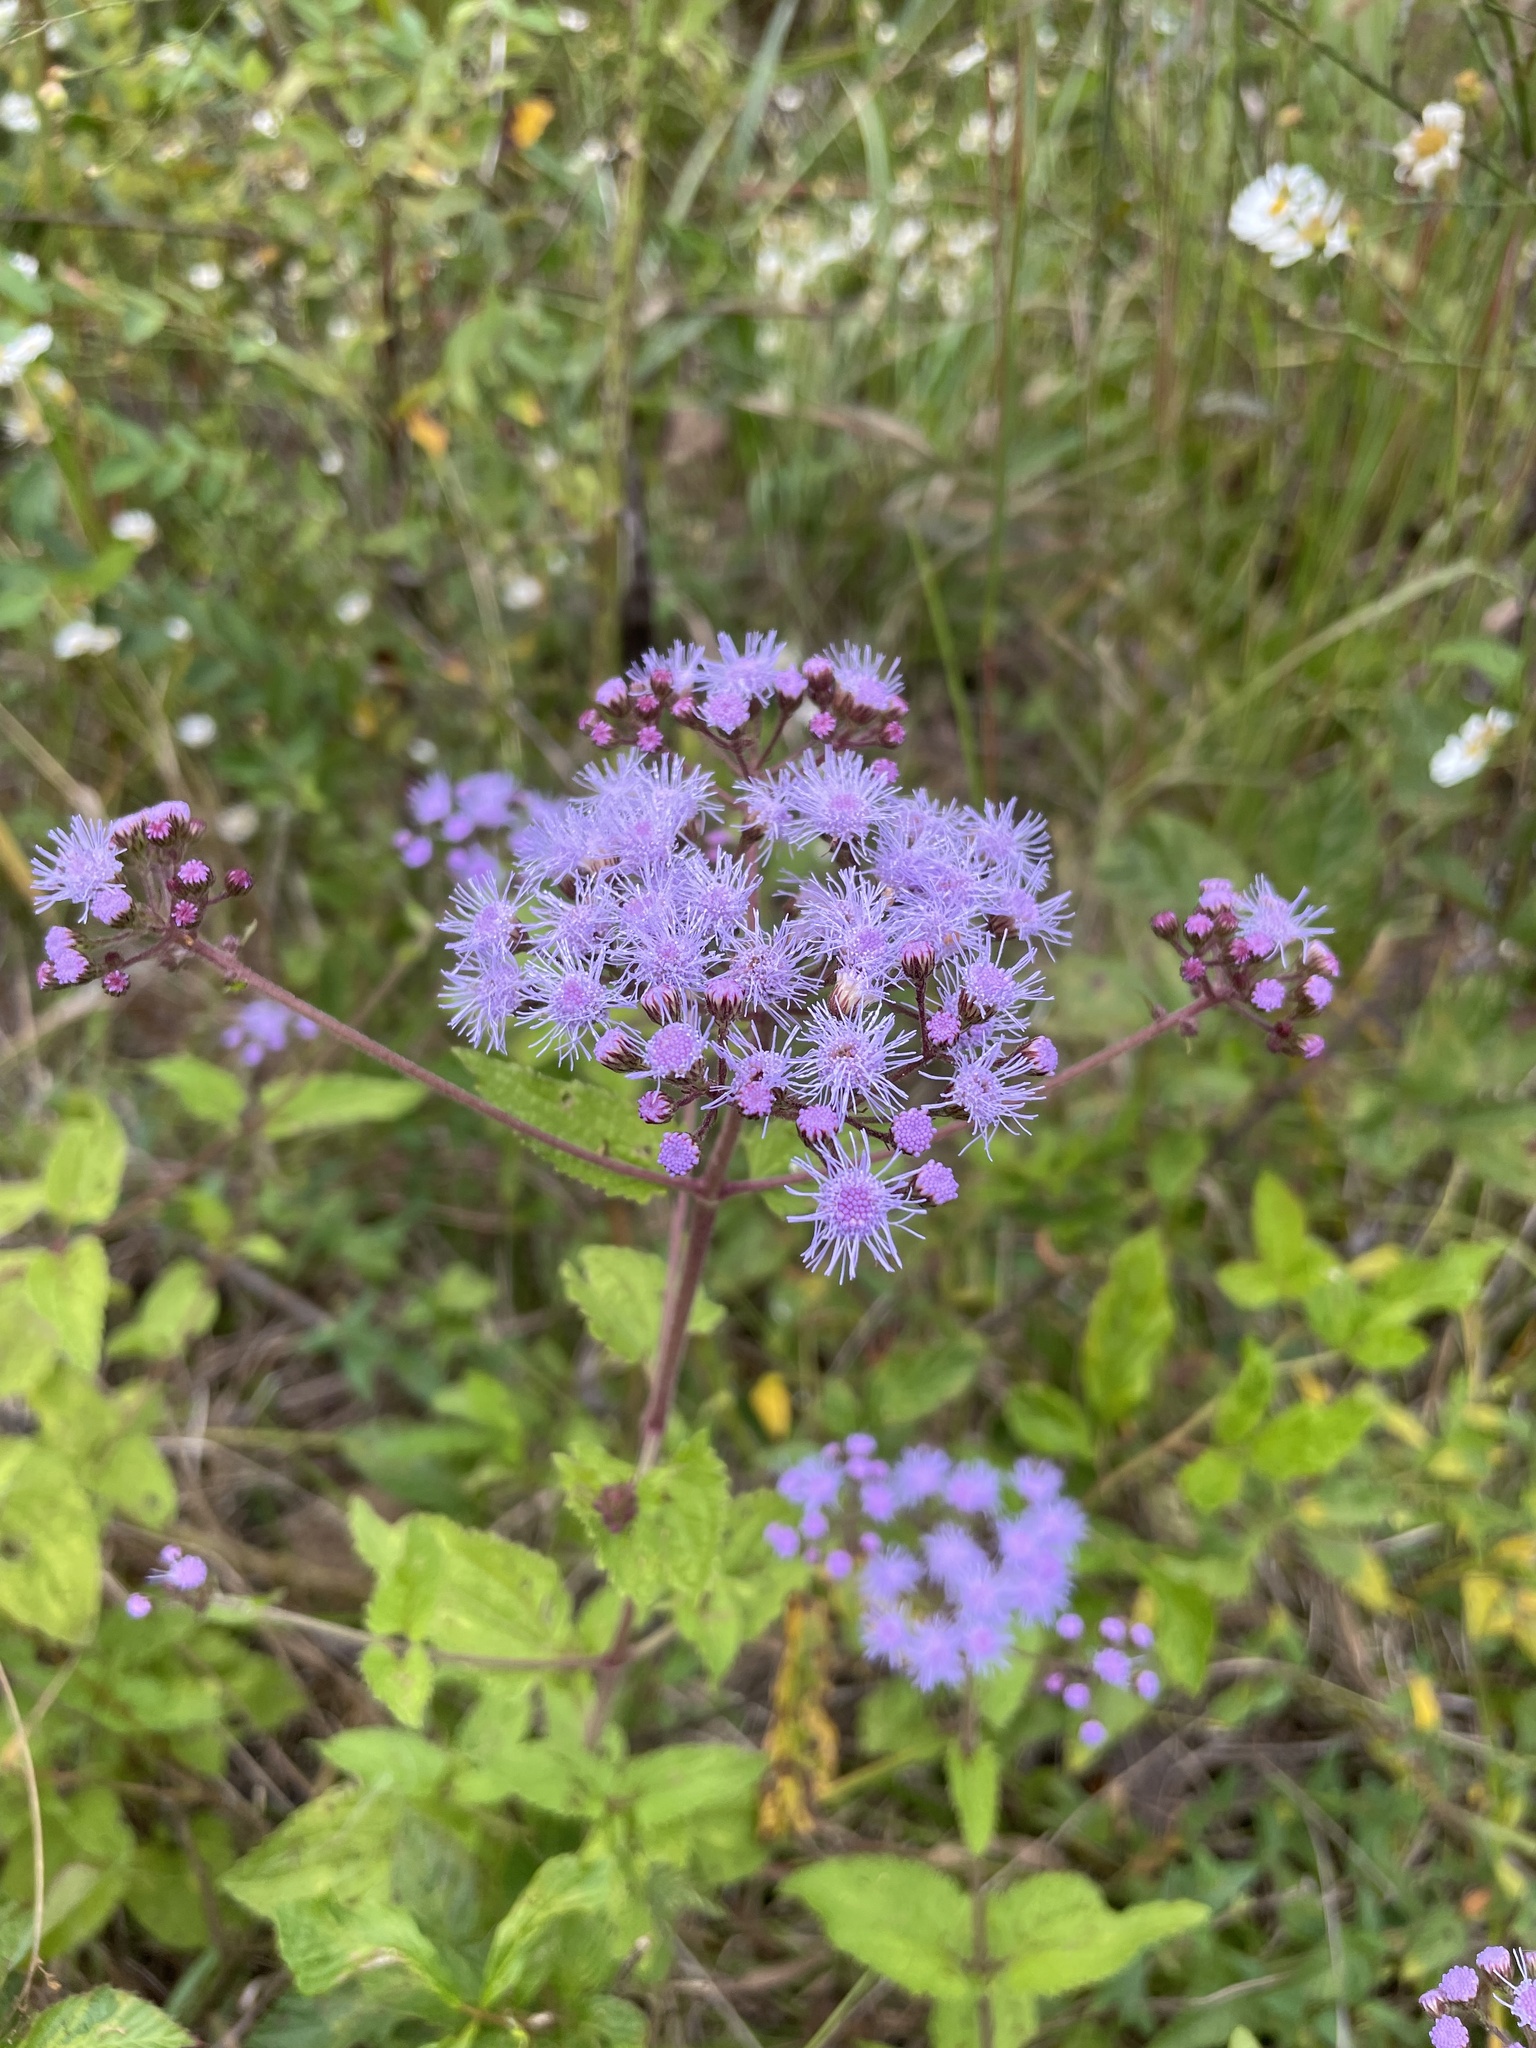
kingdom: Plantae
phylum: Tracheophyta
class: Magnoliopsida
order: Asterales
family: Asteraceae
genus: Conoclinium
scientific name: Conoclinium coelestinum
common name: Blue mistflower
